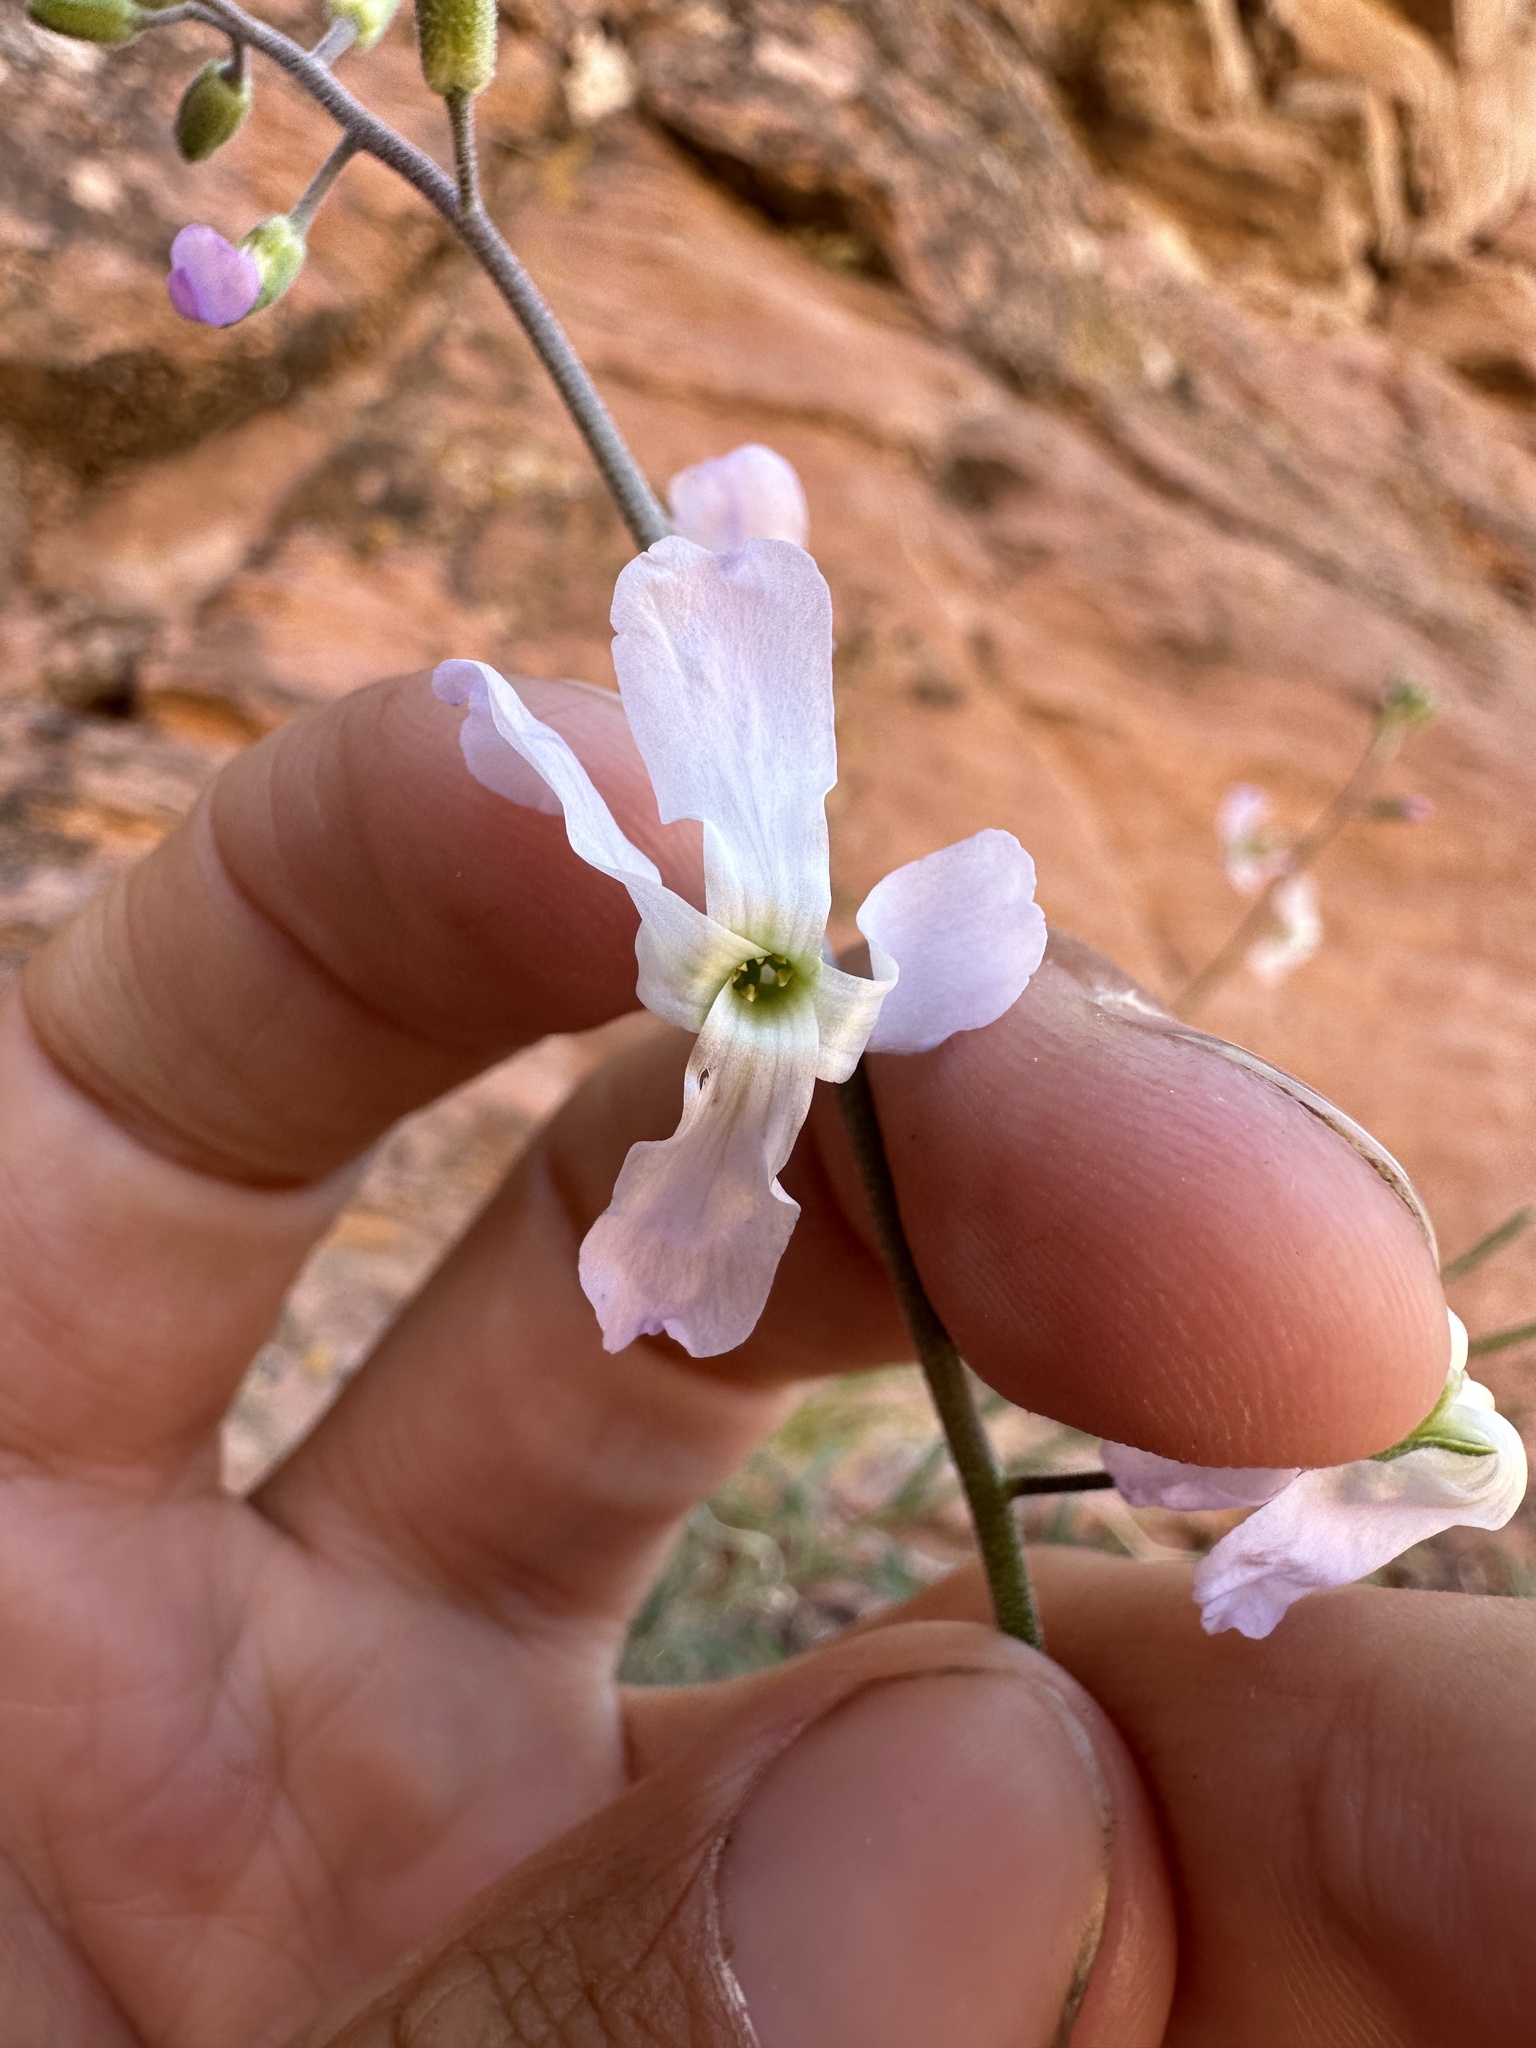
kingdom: Plantae
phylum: Tracheophyta
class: Magnoliopsida
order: Brassicales
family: Brassicaceae
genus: Boechera
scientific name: Boechera formosa
